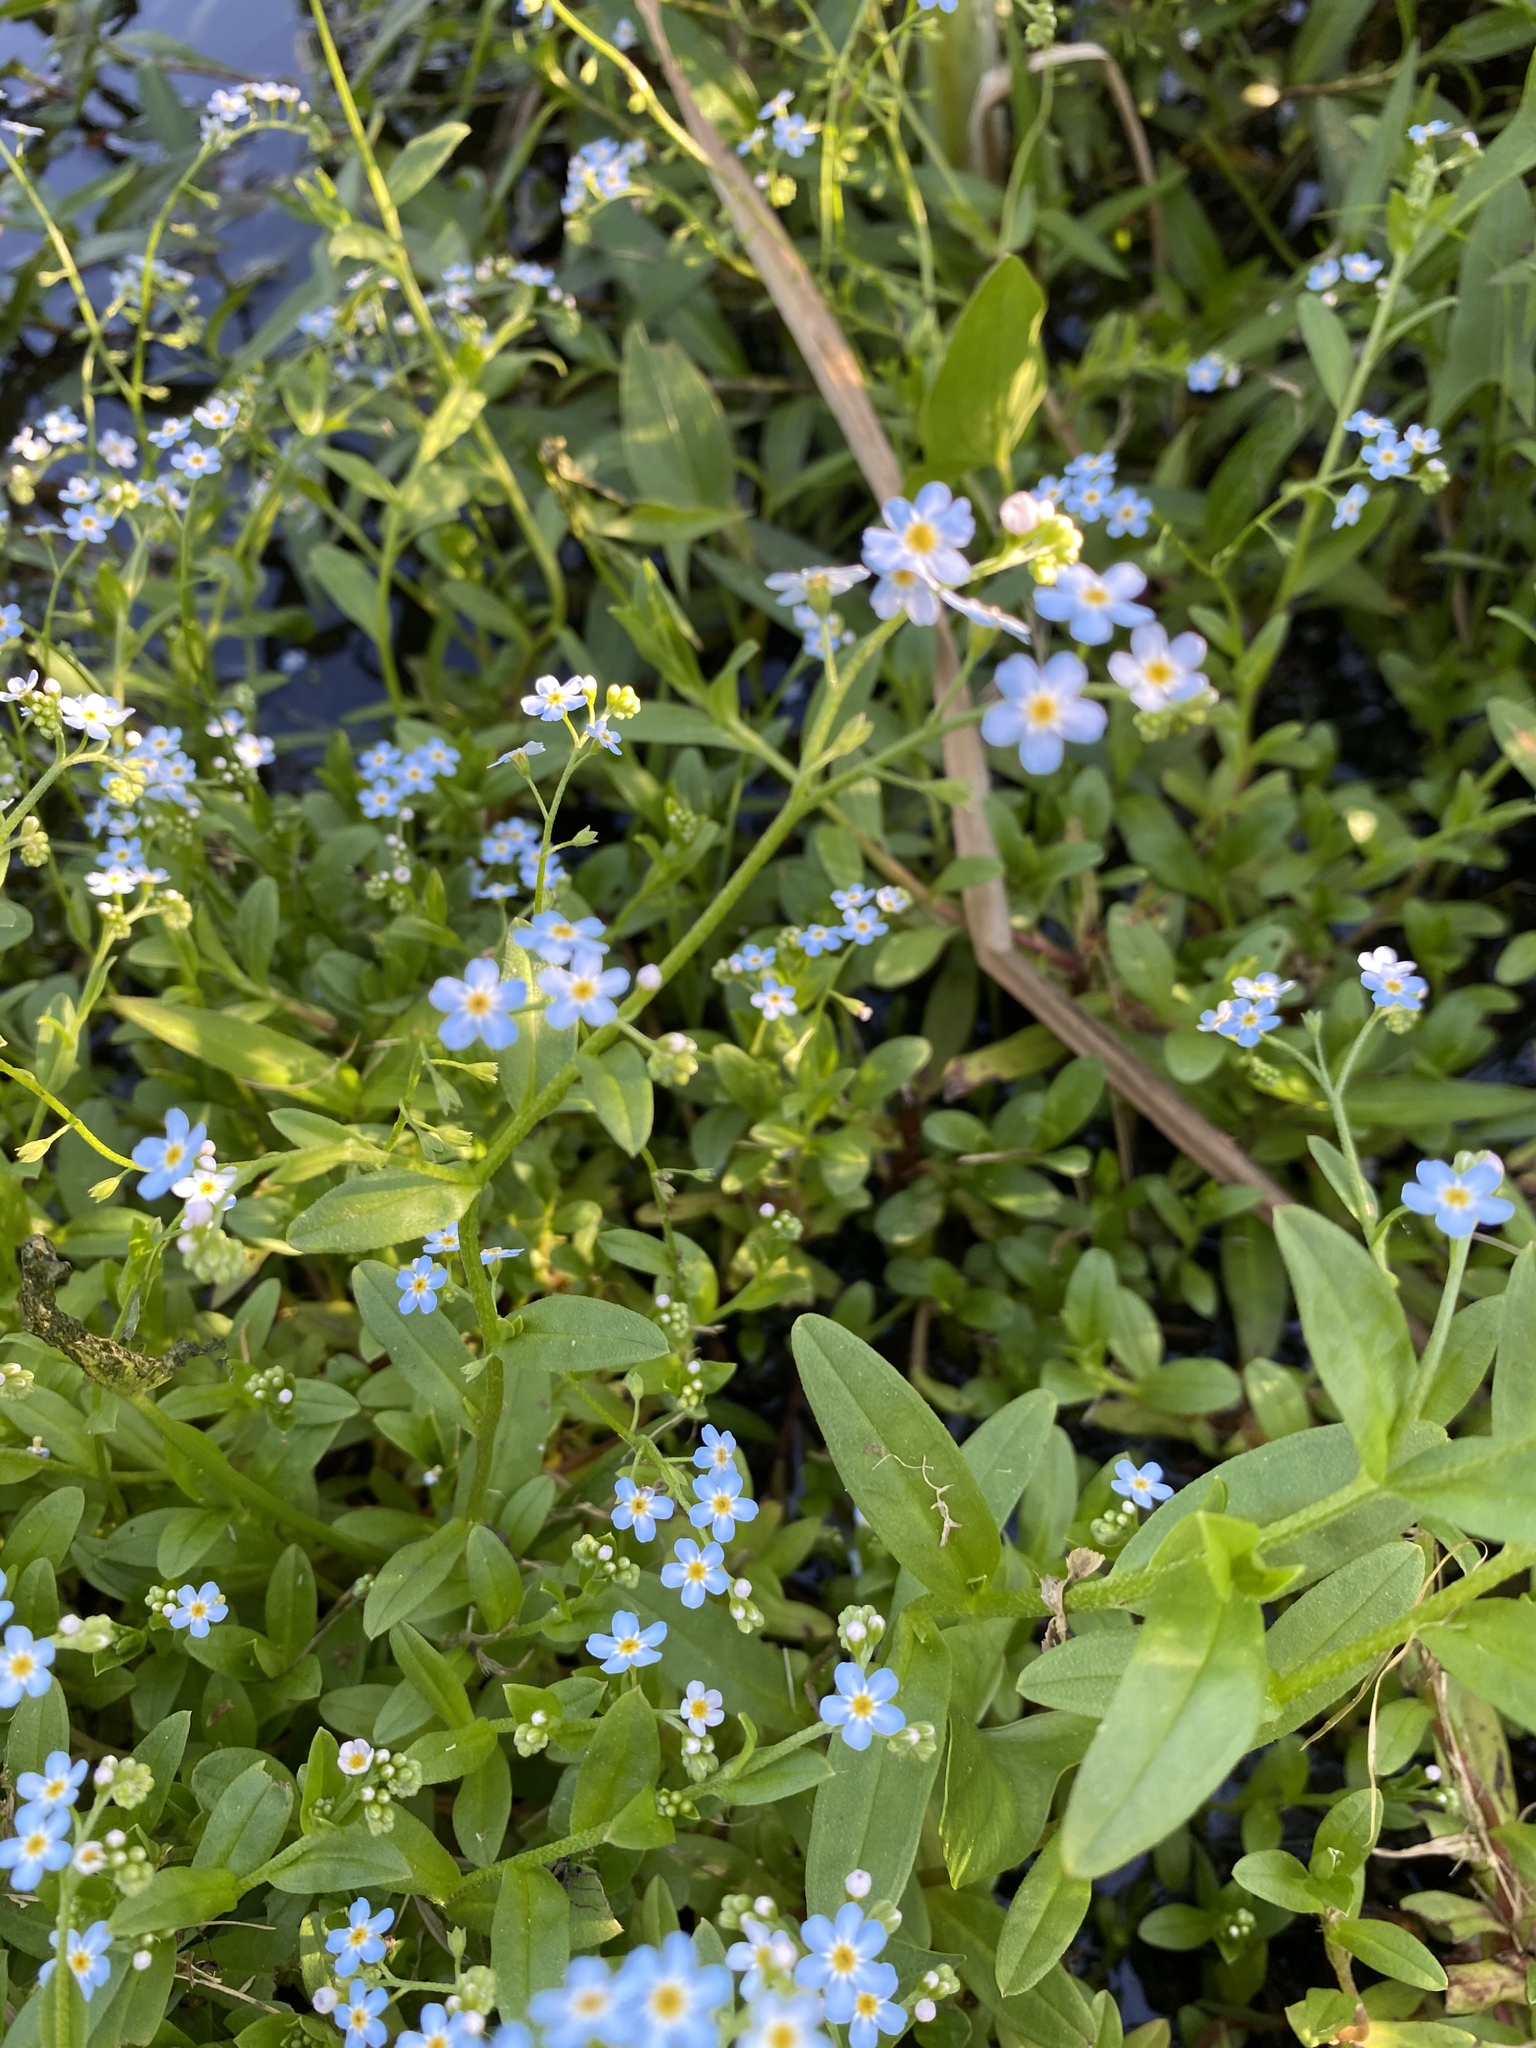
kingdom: Plantae
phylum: Tracheophyta
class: Magnoliopsida
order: Boraginales
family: Boraginaceae
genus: Myosotis
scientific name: Myosotis scorpioides
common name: Water forget-me-not
